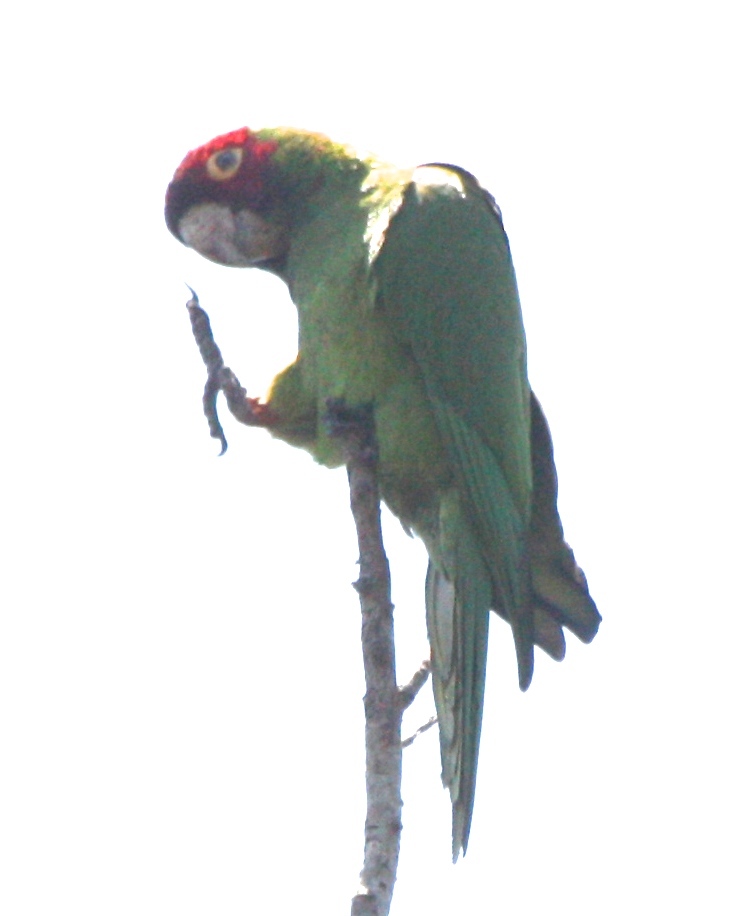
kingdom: Animalia
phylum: Chordata
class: Aves
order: Psittaciformes
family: Psittacidae
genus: Aratinga
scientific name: Aratinga erythrogenys
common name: Red-masked parakeet
